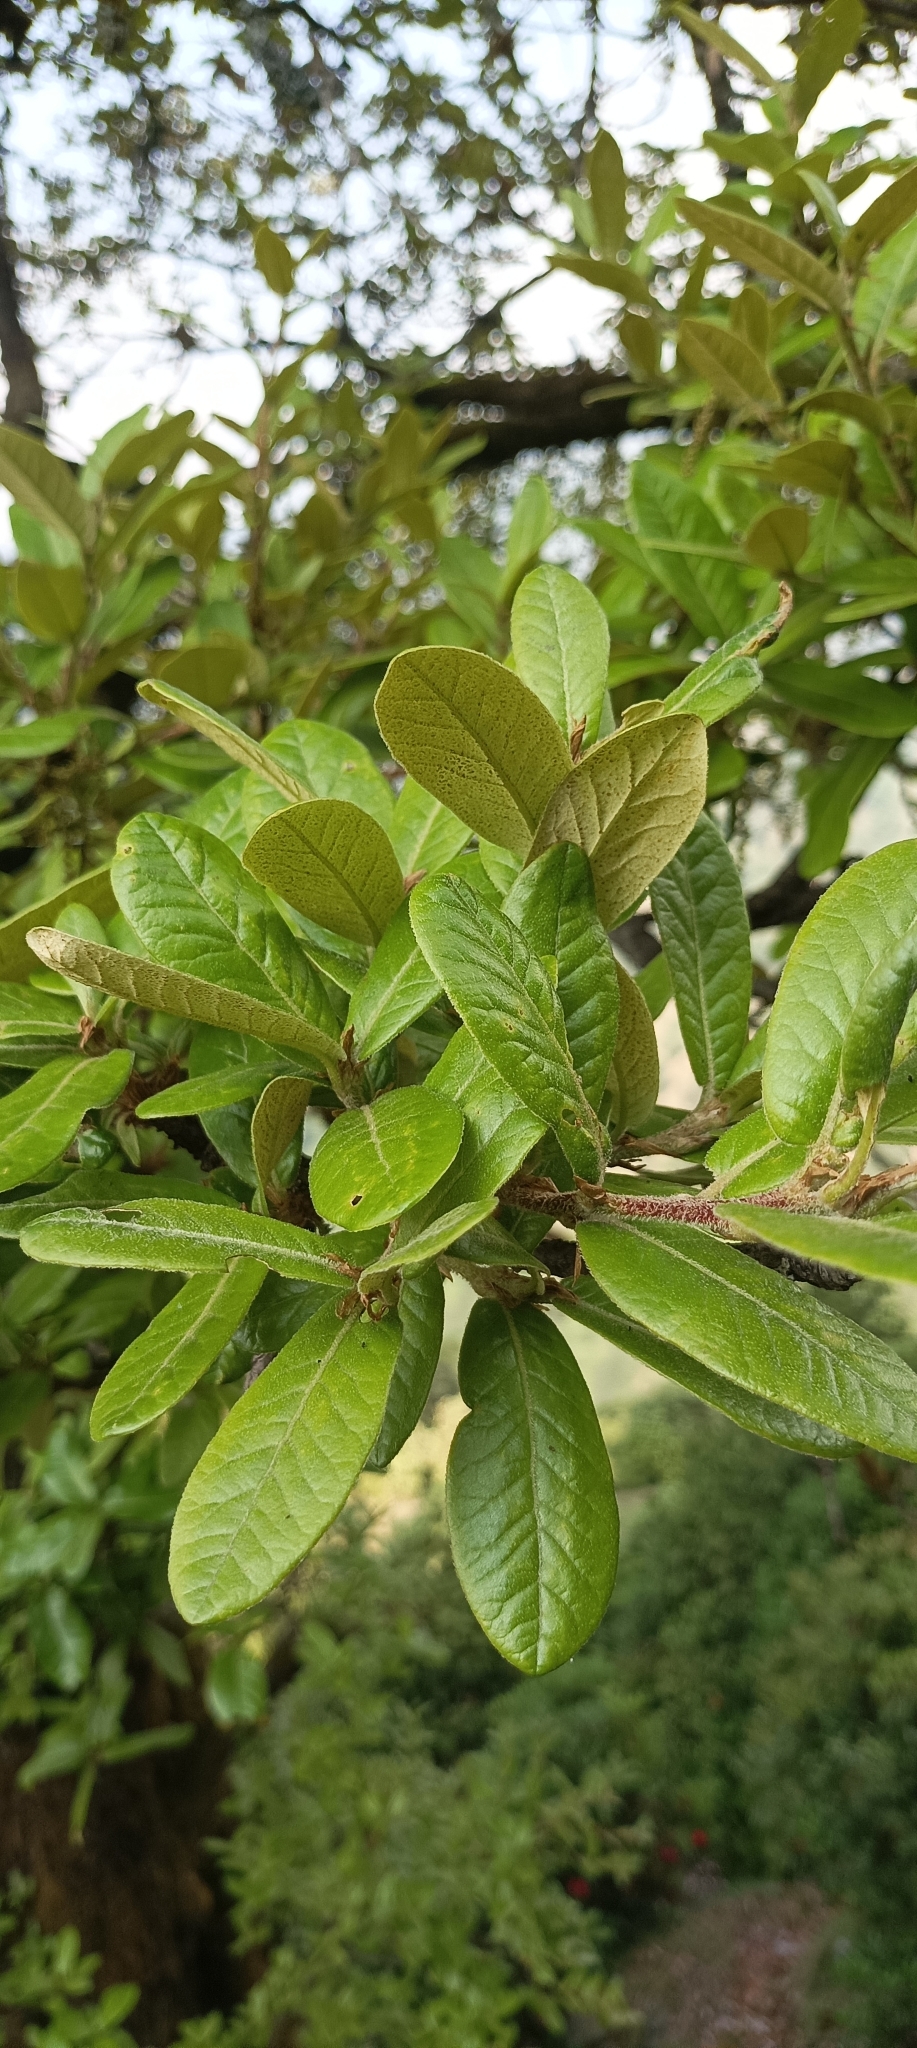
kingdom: Plantae
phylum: Tracheophyta
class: Magnoliopsida
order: Fagales
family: Fagaceae
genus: Quercus
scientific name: Quercus semecarpifolia
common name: Brown oak
